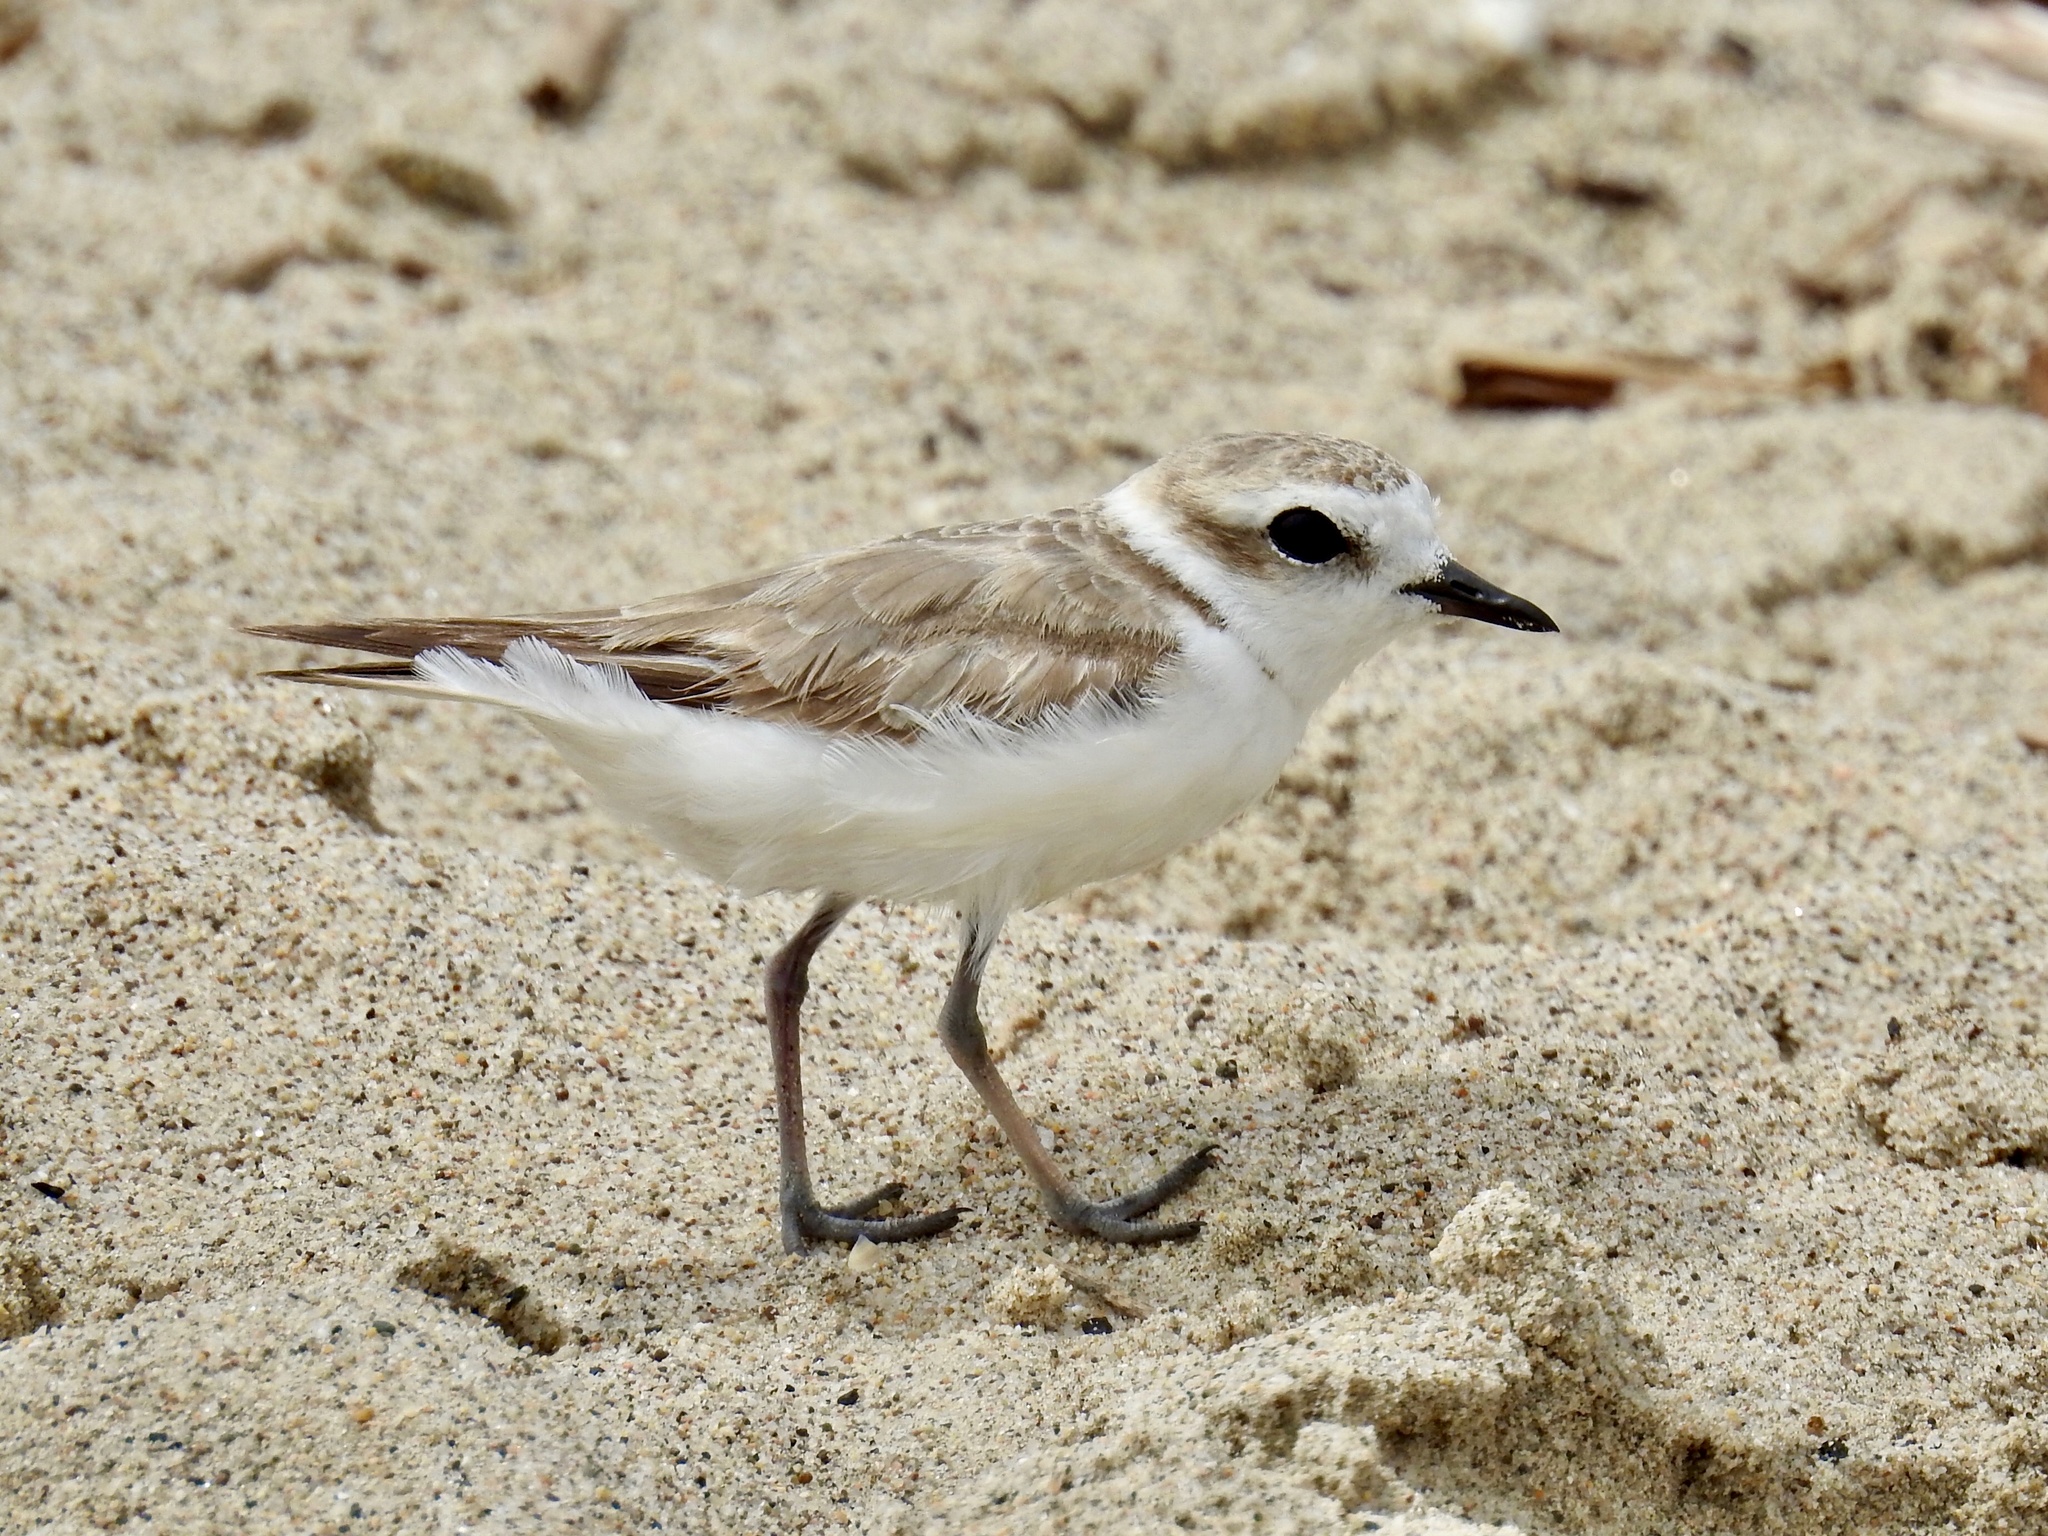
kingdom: Animalia
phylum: Chordata
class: Aves
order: Charadriiformes
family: Charadriidae
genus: Anarhynchus
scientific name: Anarhynchus
